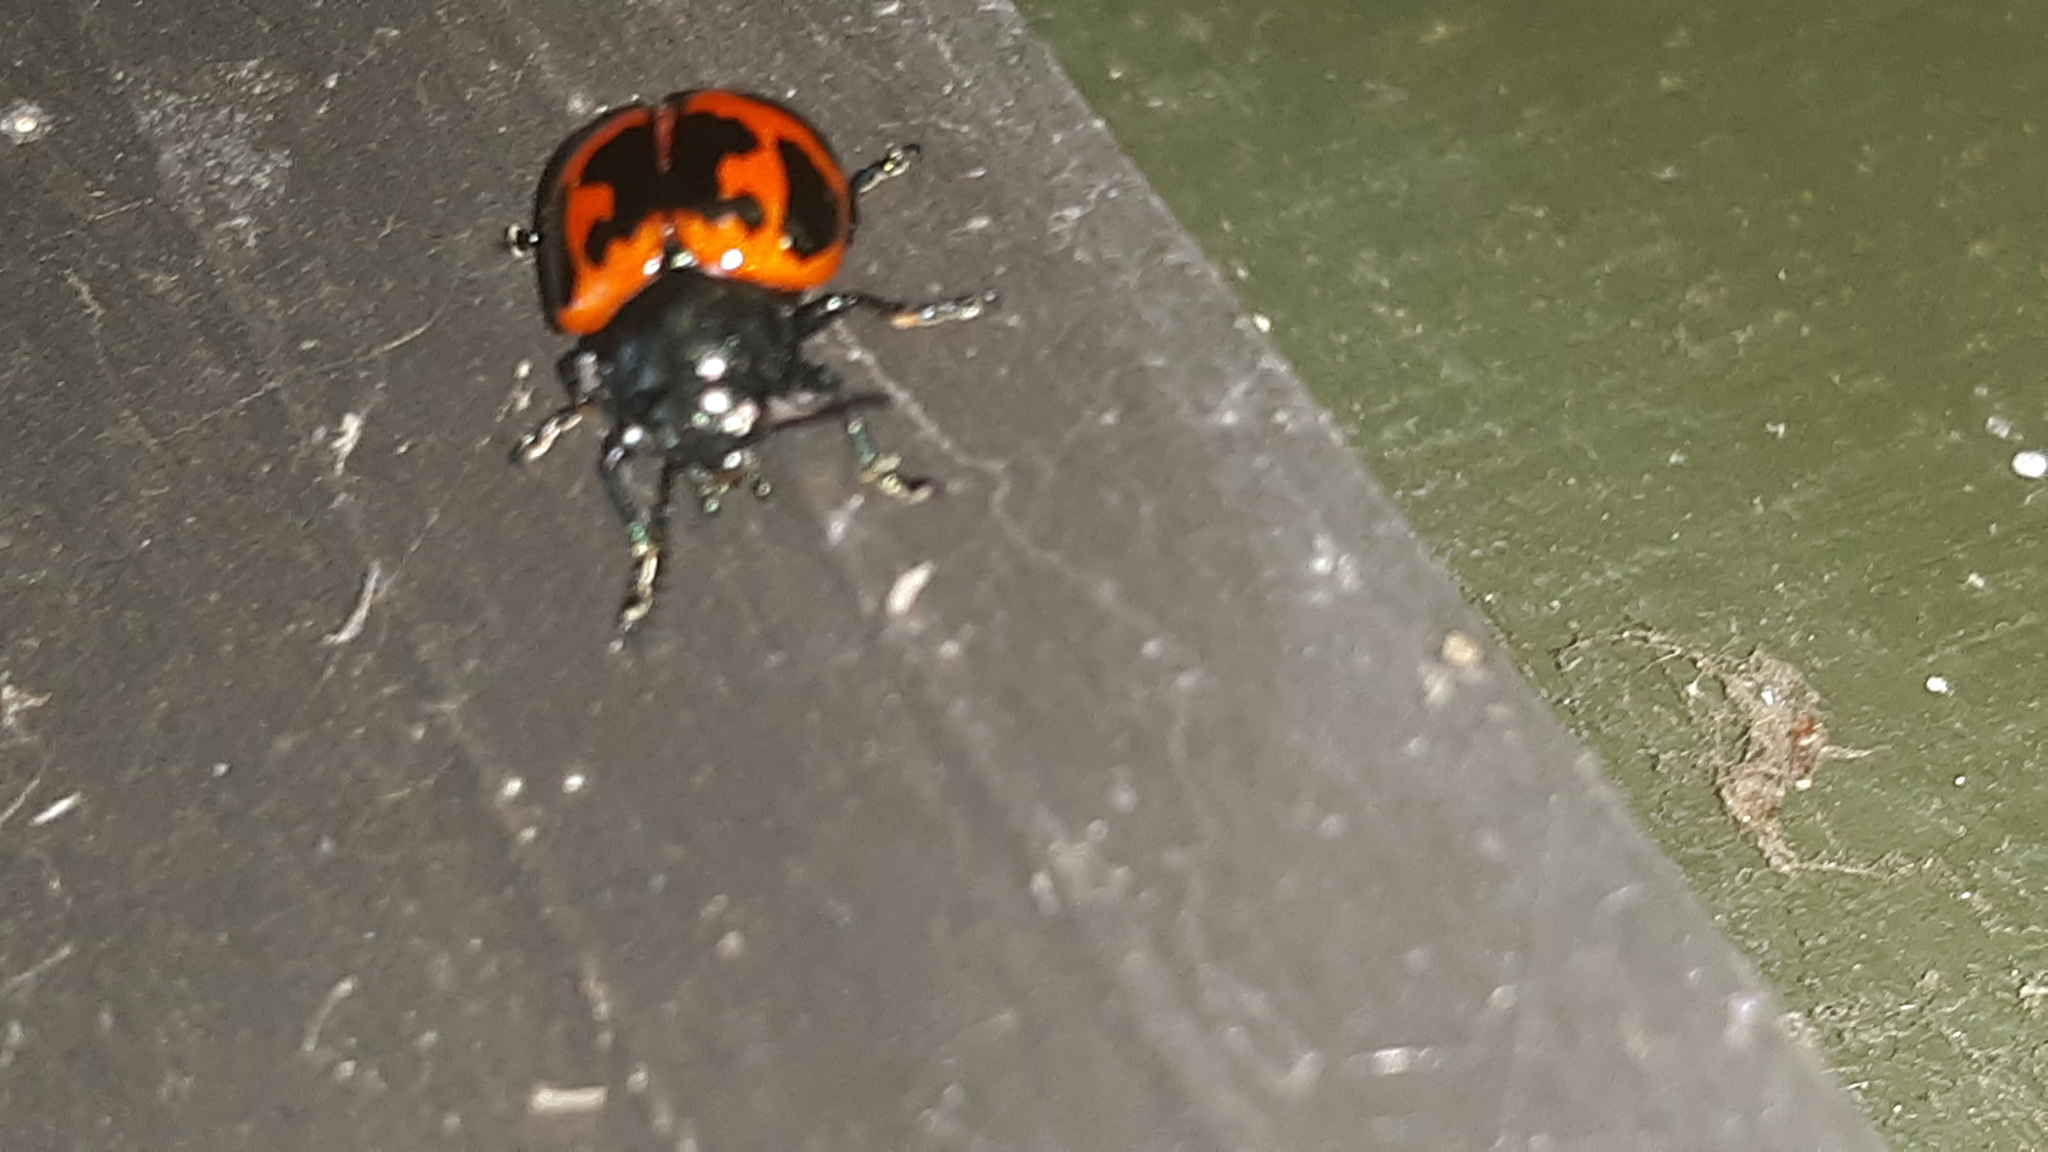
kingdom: Animalia
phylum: Arthropoda
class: Insecta
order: Coleoptera
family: Chrysomelidae
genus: Labidomera
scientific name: Labidomera clivicollis
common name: Swamp milkweed leaf beetle
